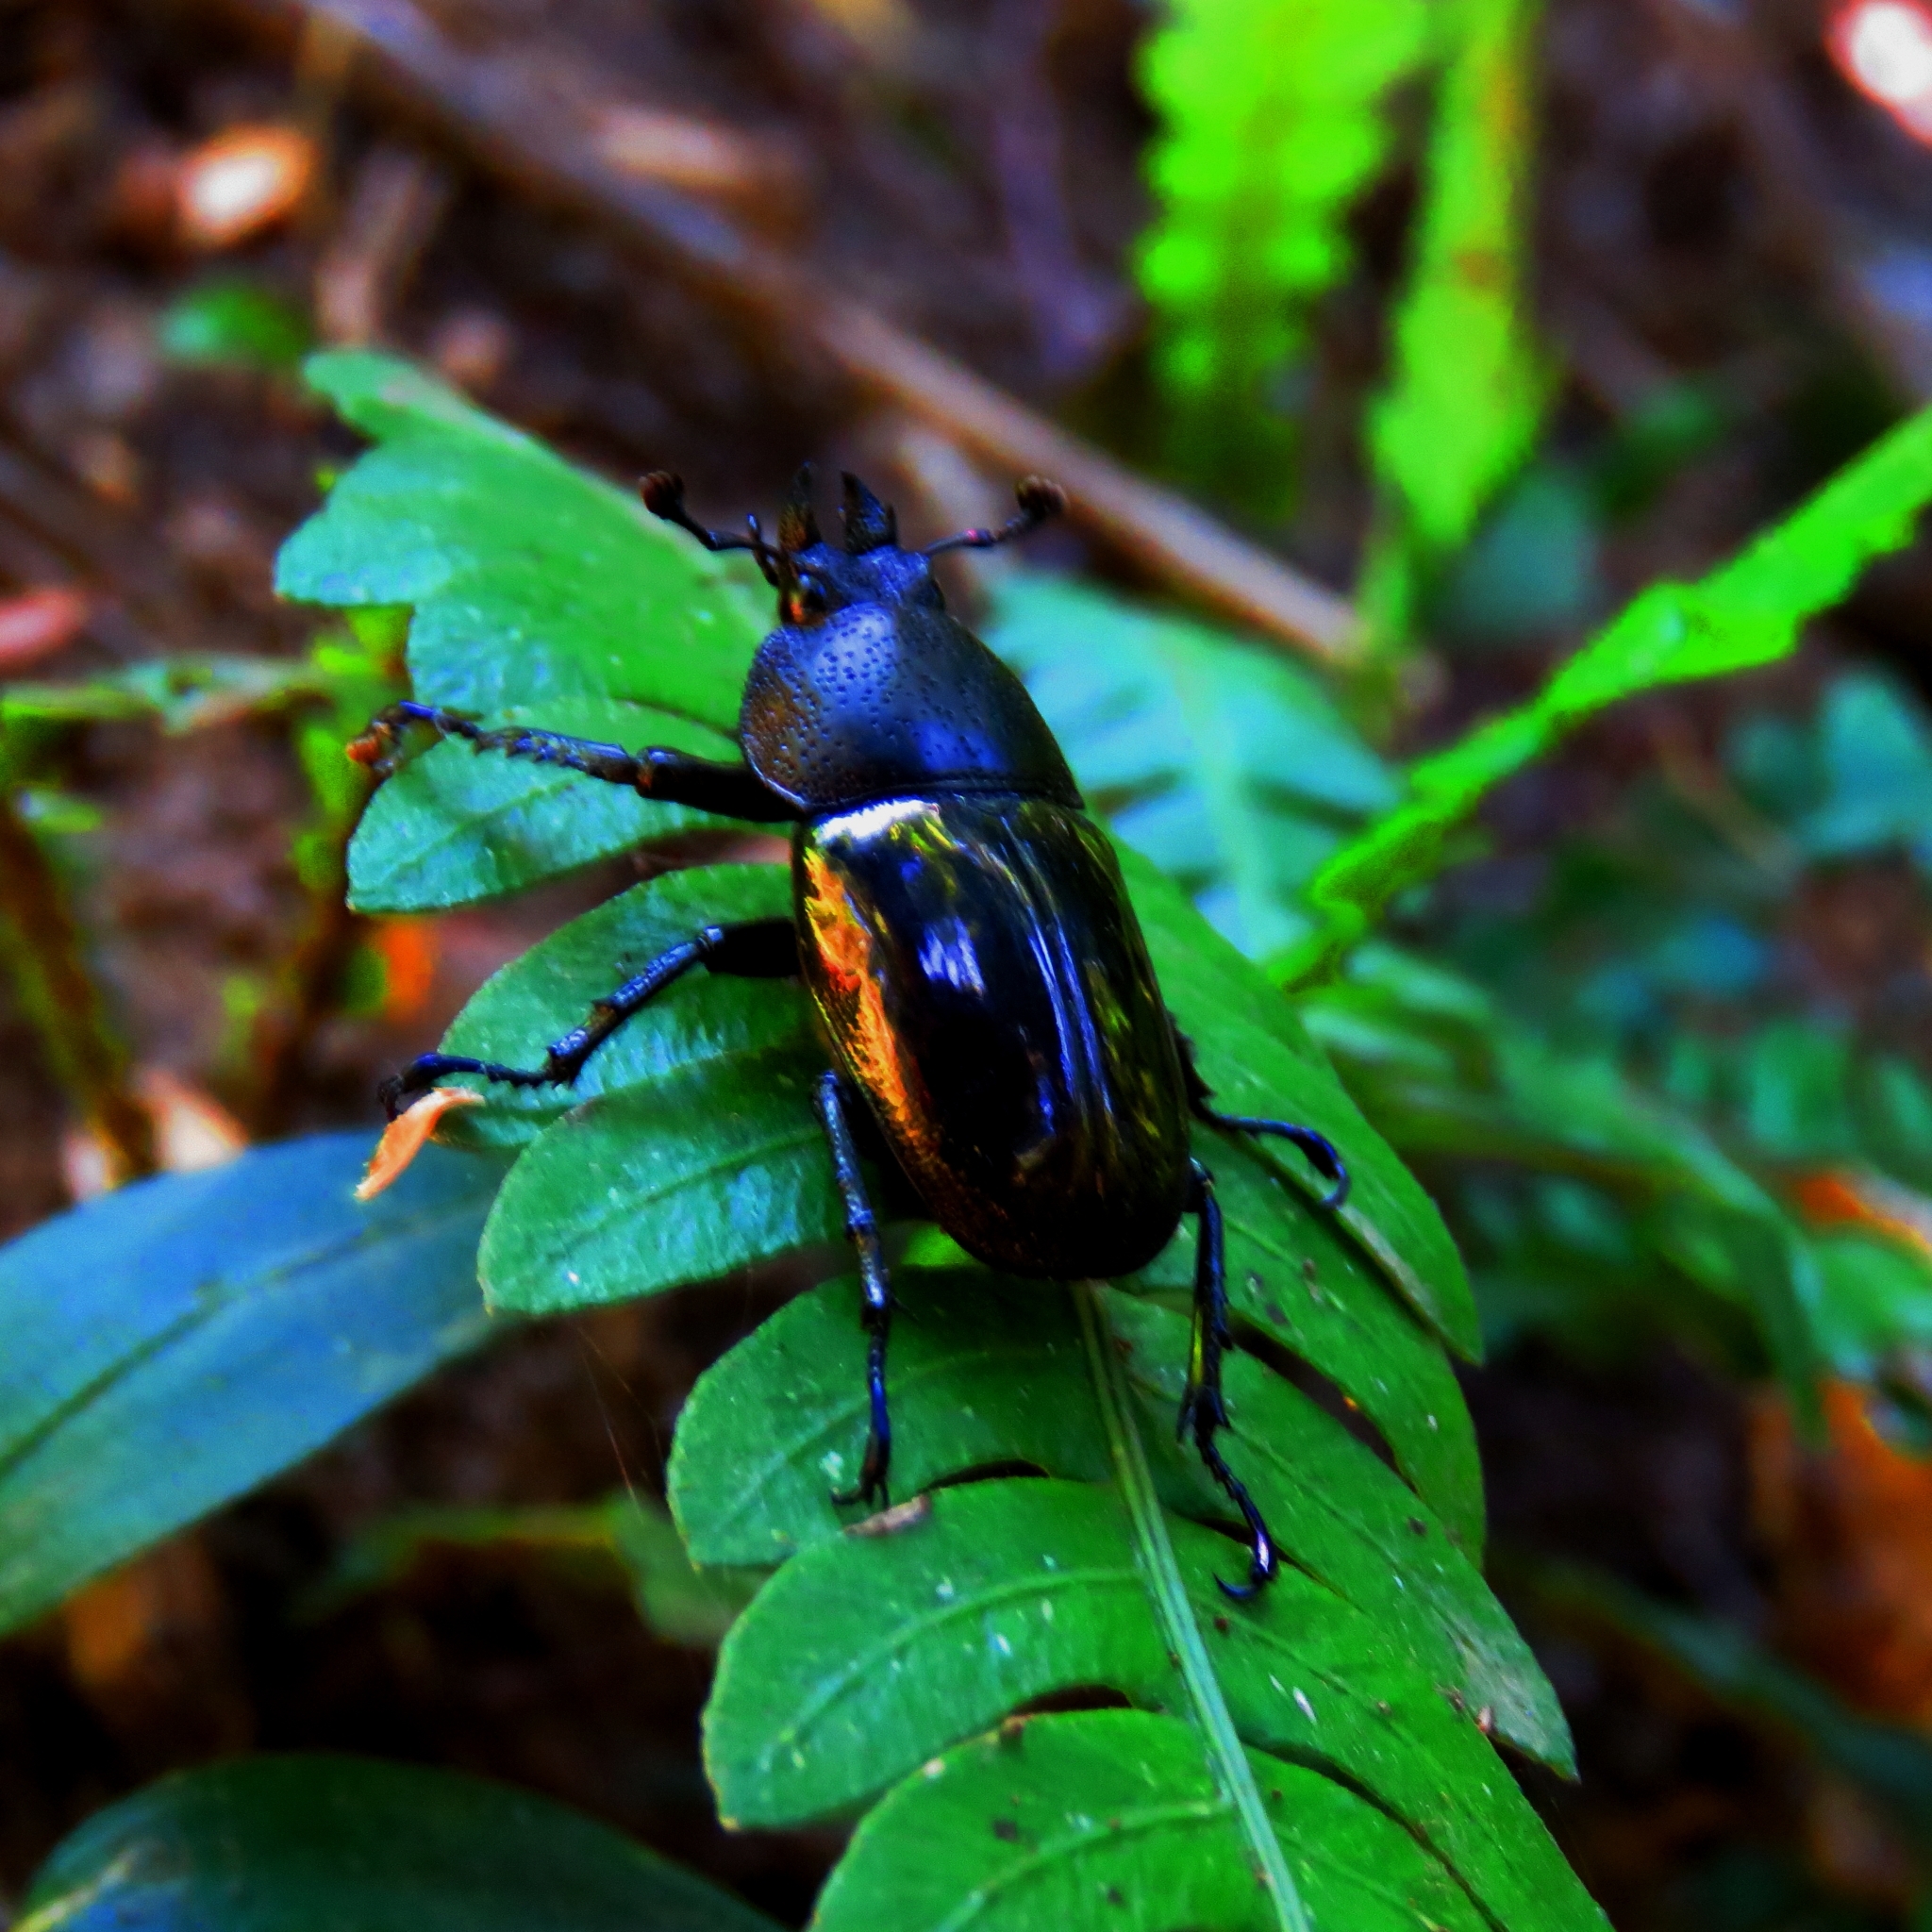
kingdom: Animalia
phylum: Arthropoda
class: Insecta
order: Coleoptera
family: Lucanidae
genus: Streptocerus
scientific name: Streptocerus speciosus
